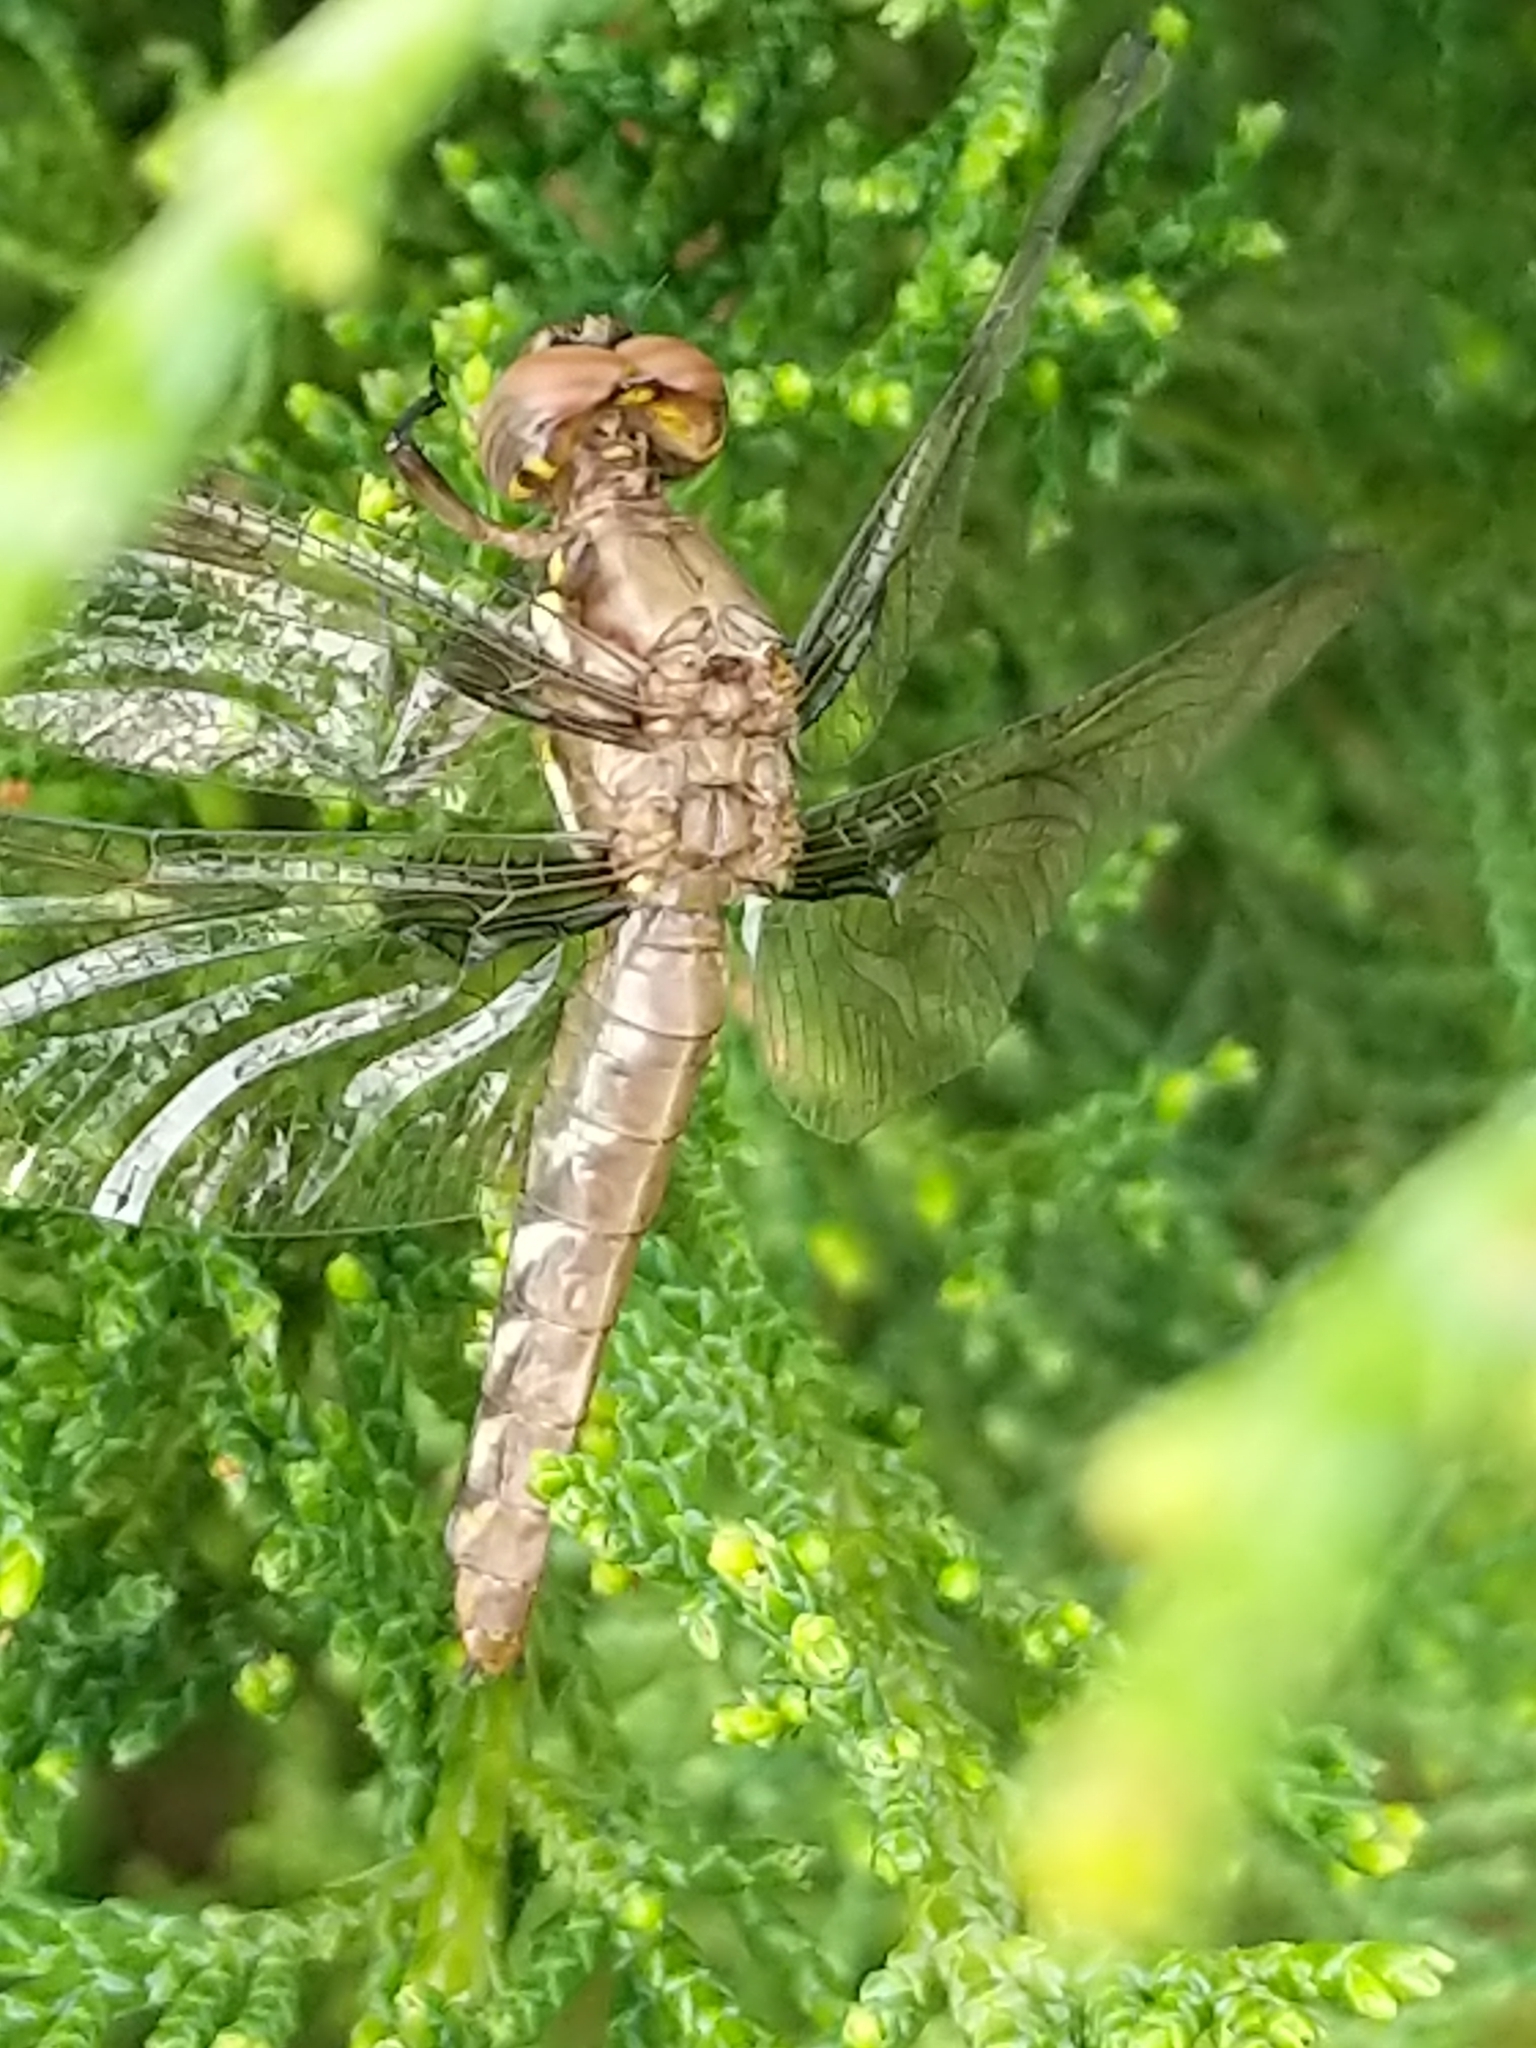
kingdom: Animalia
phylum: Arthropoda
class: Insecta
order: Odonata
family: Libellulidae
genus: Plathemis
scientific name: Plathemis lydia
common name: Common whitetail
